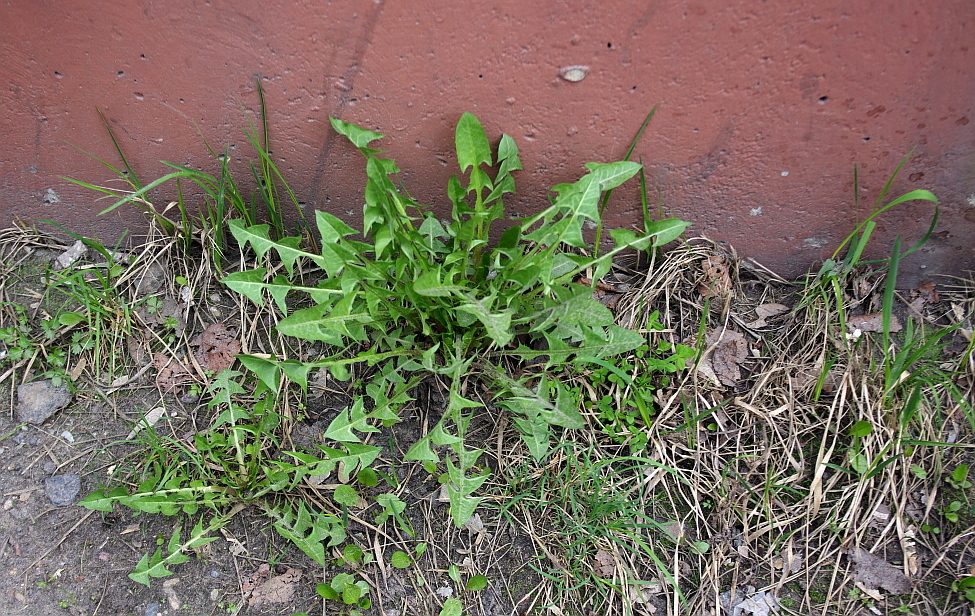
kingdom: Plantae
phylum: Tracheophyta
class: Magnoliopsida
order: Asterales
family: Asteraceae
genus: Taraxacum
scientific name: Taraxacum officinale
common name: Common dandelion
